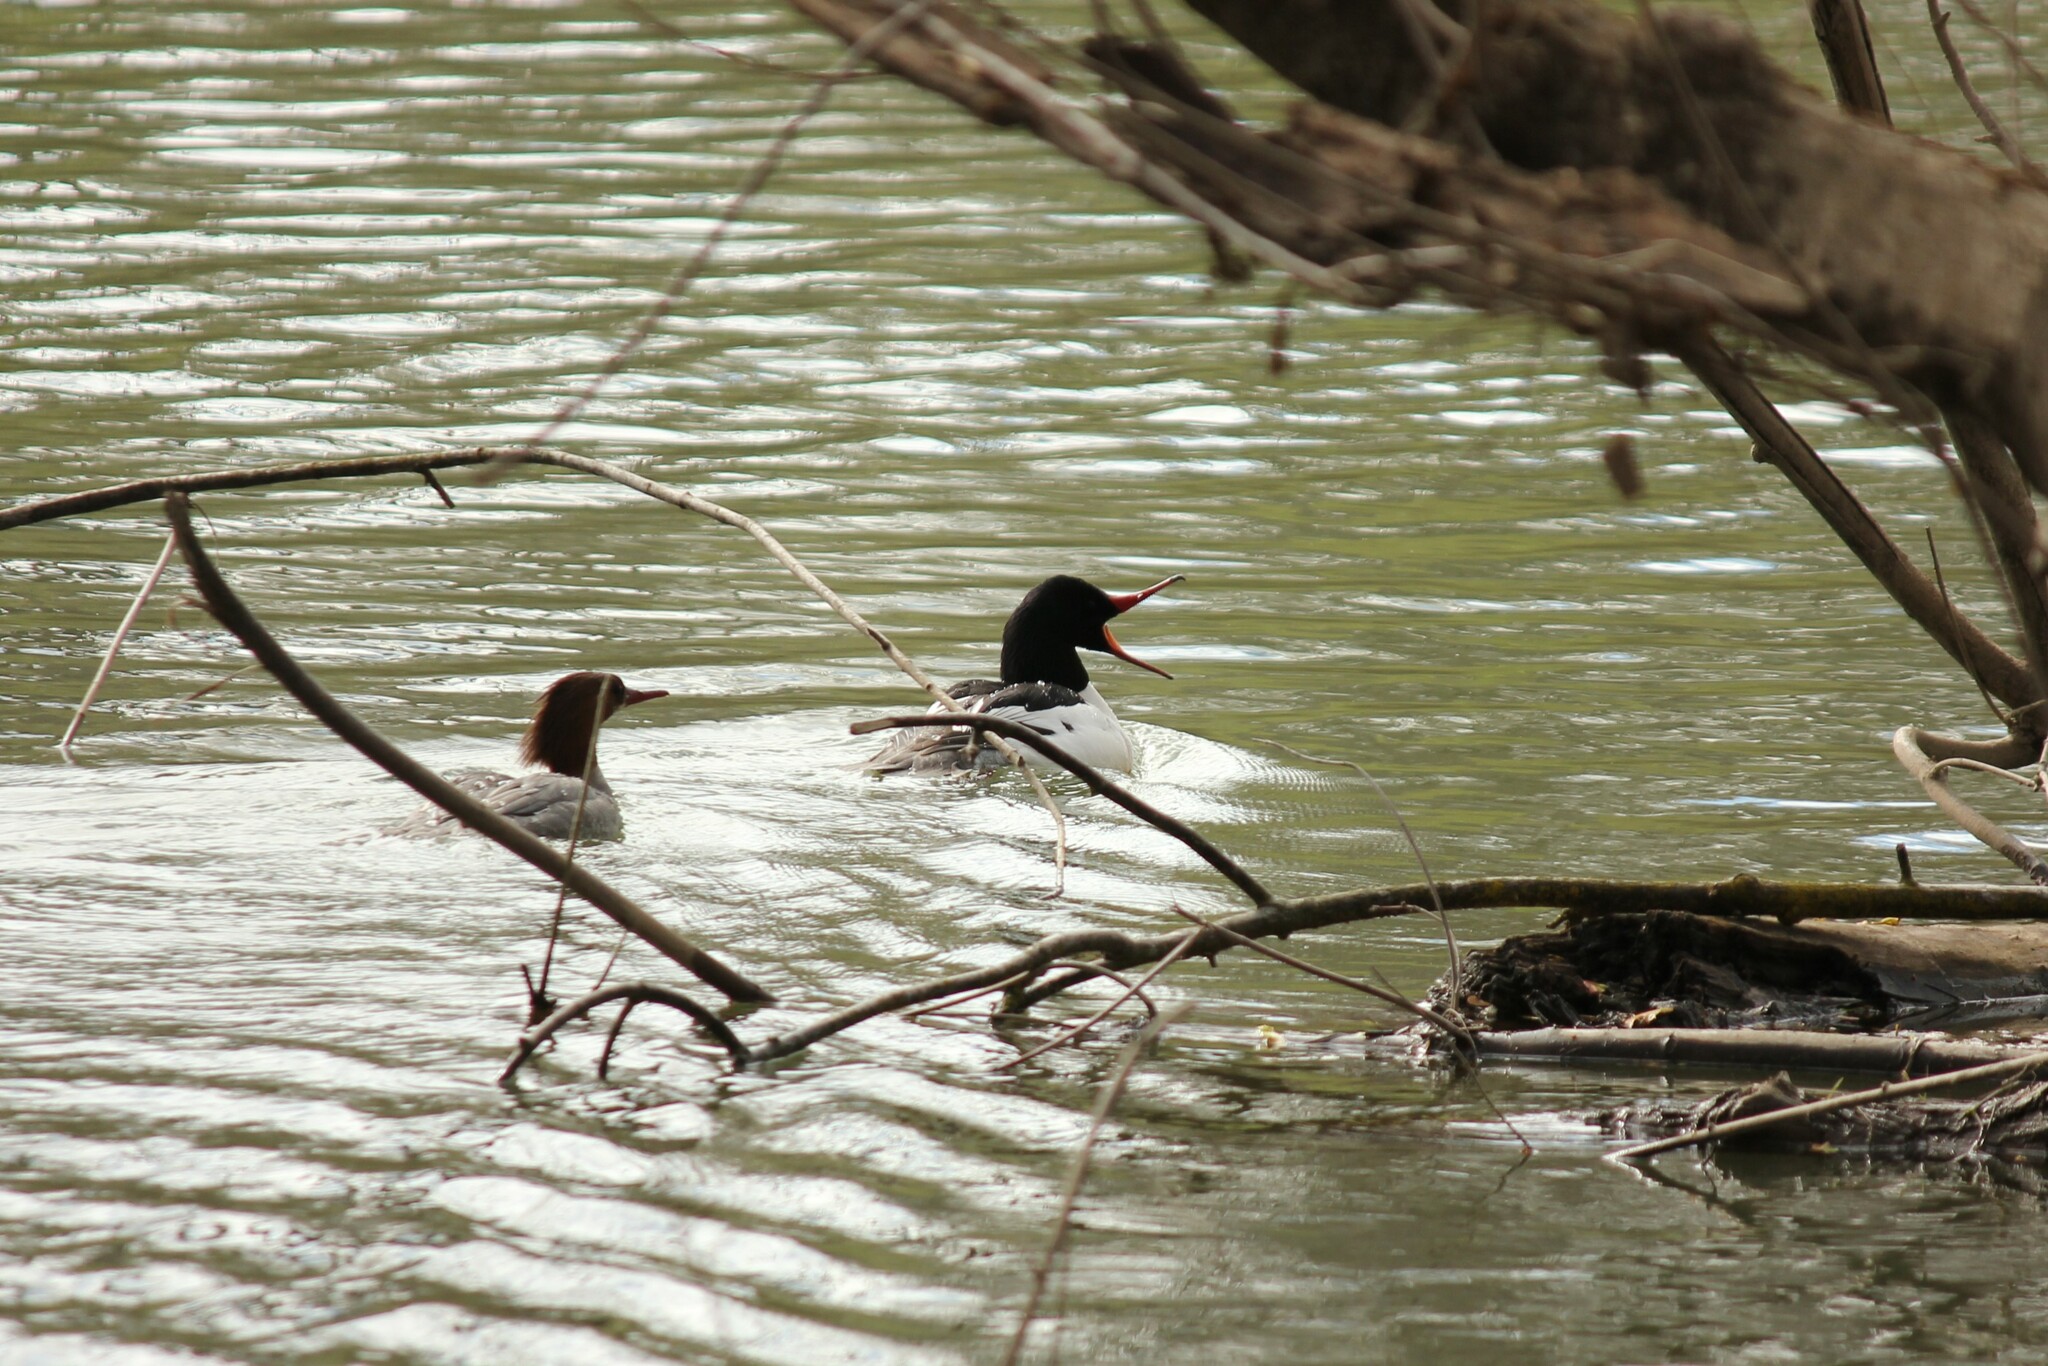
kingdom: Animalia
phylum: Chordata
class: Aves
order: Anseriformes
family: Anatidae
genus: Mergus
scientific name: Mergus merganser
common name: Common merganser
